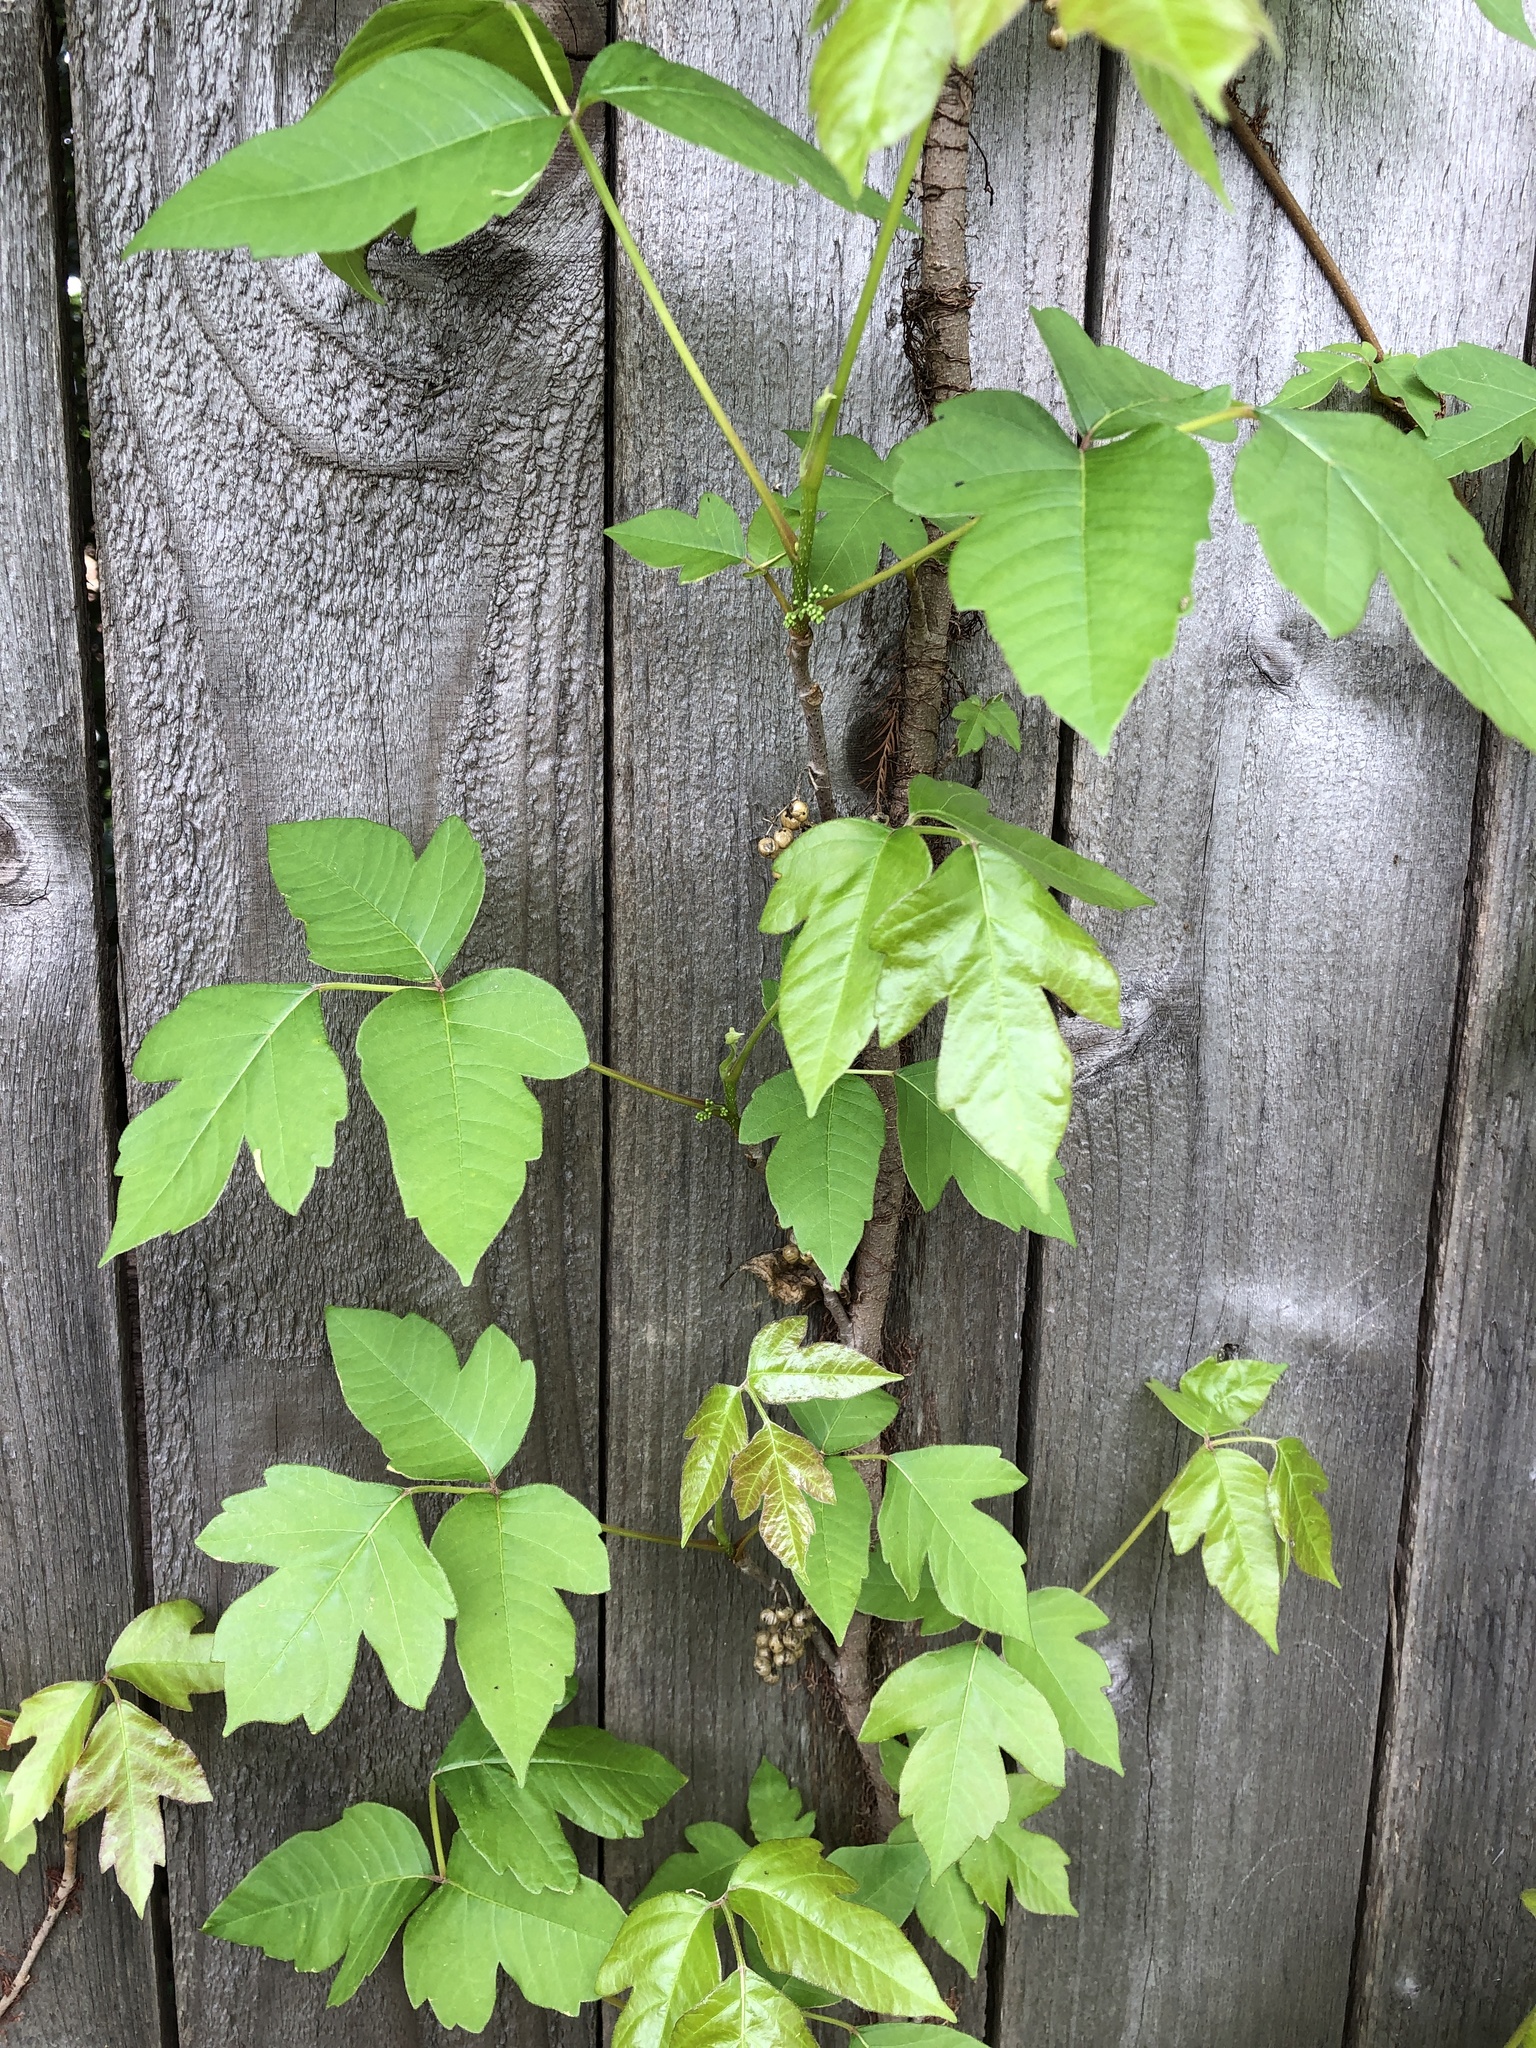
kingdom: Plantae
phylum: Tracheophyta
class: Magnoliopsida
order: Sapindales
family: Anacardiaceae
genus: Toxicodendron
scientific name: Toxicodendron radicans
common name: Poison ivy
